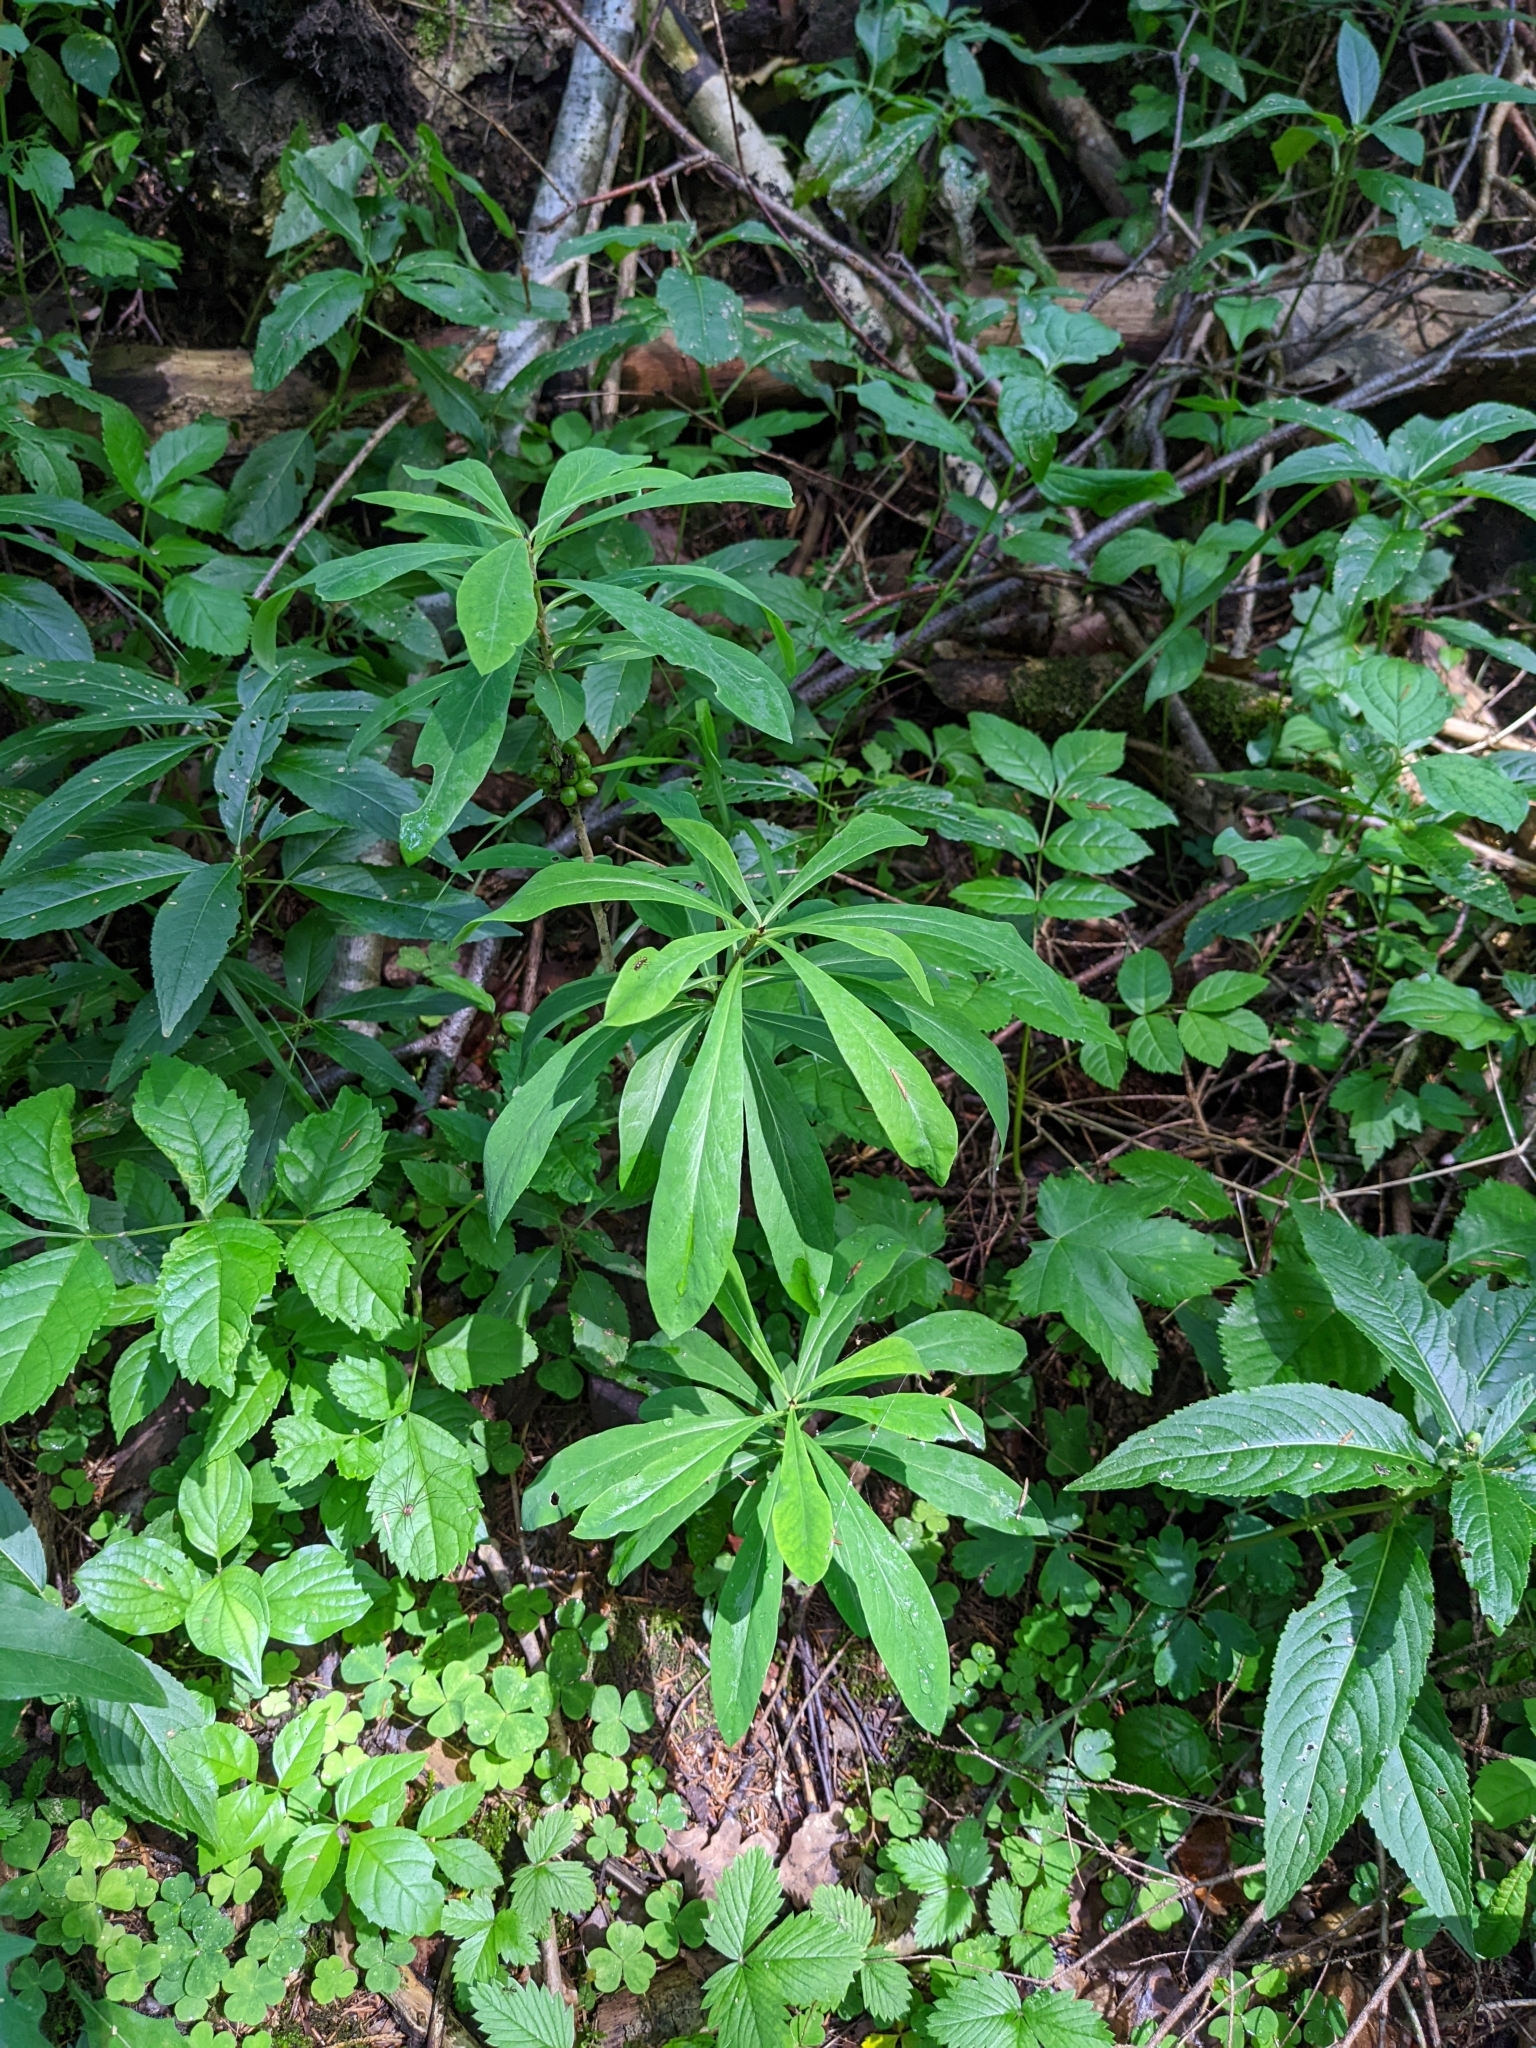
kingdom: Plantae
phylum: Tracheophyta
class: Magnoliopsida
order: Malvales
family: Thymelaeaceae
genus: Daphne
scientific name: Daphne mezereum
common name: Mezereon
